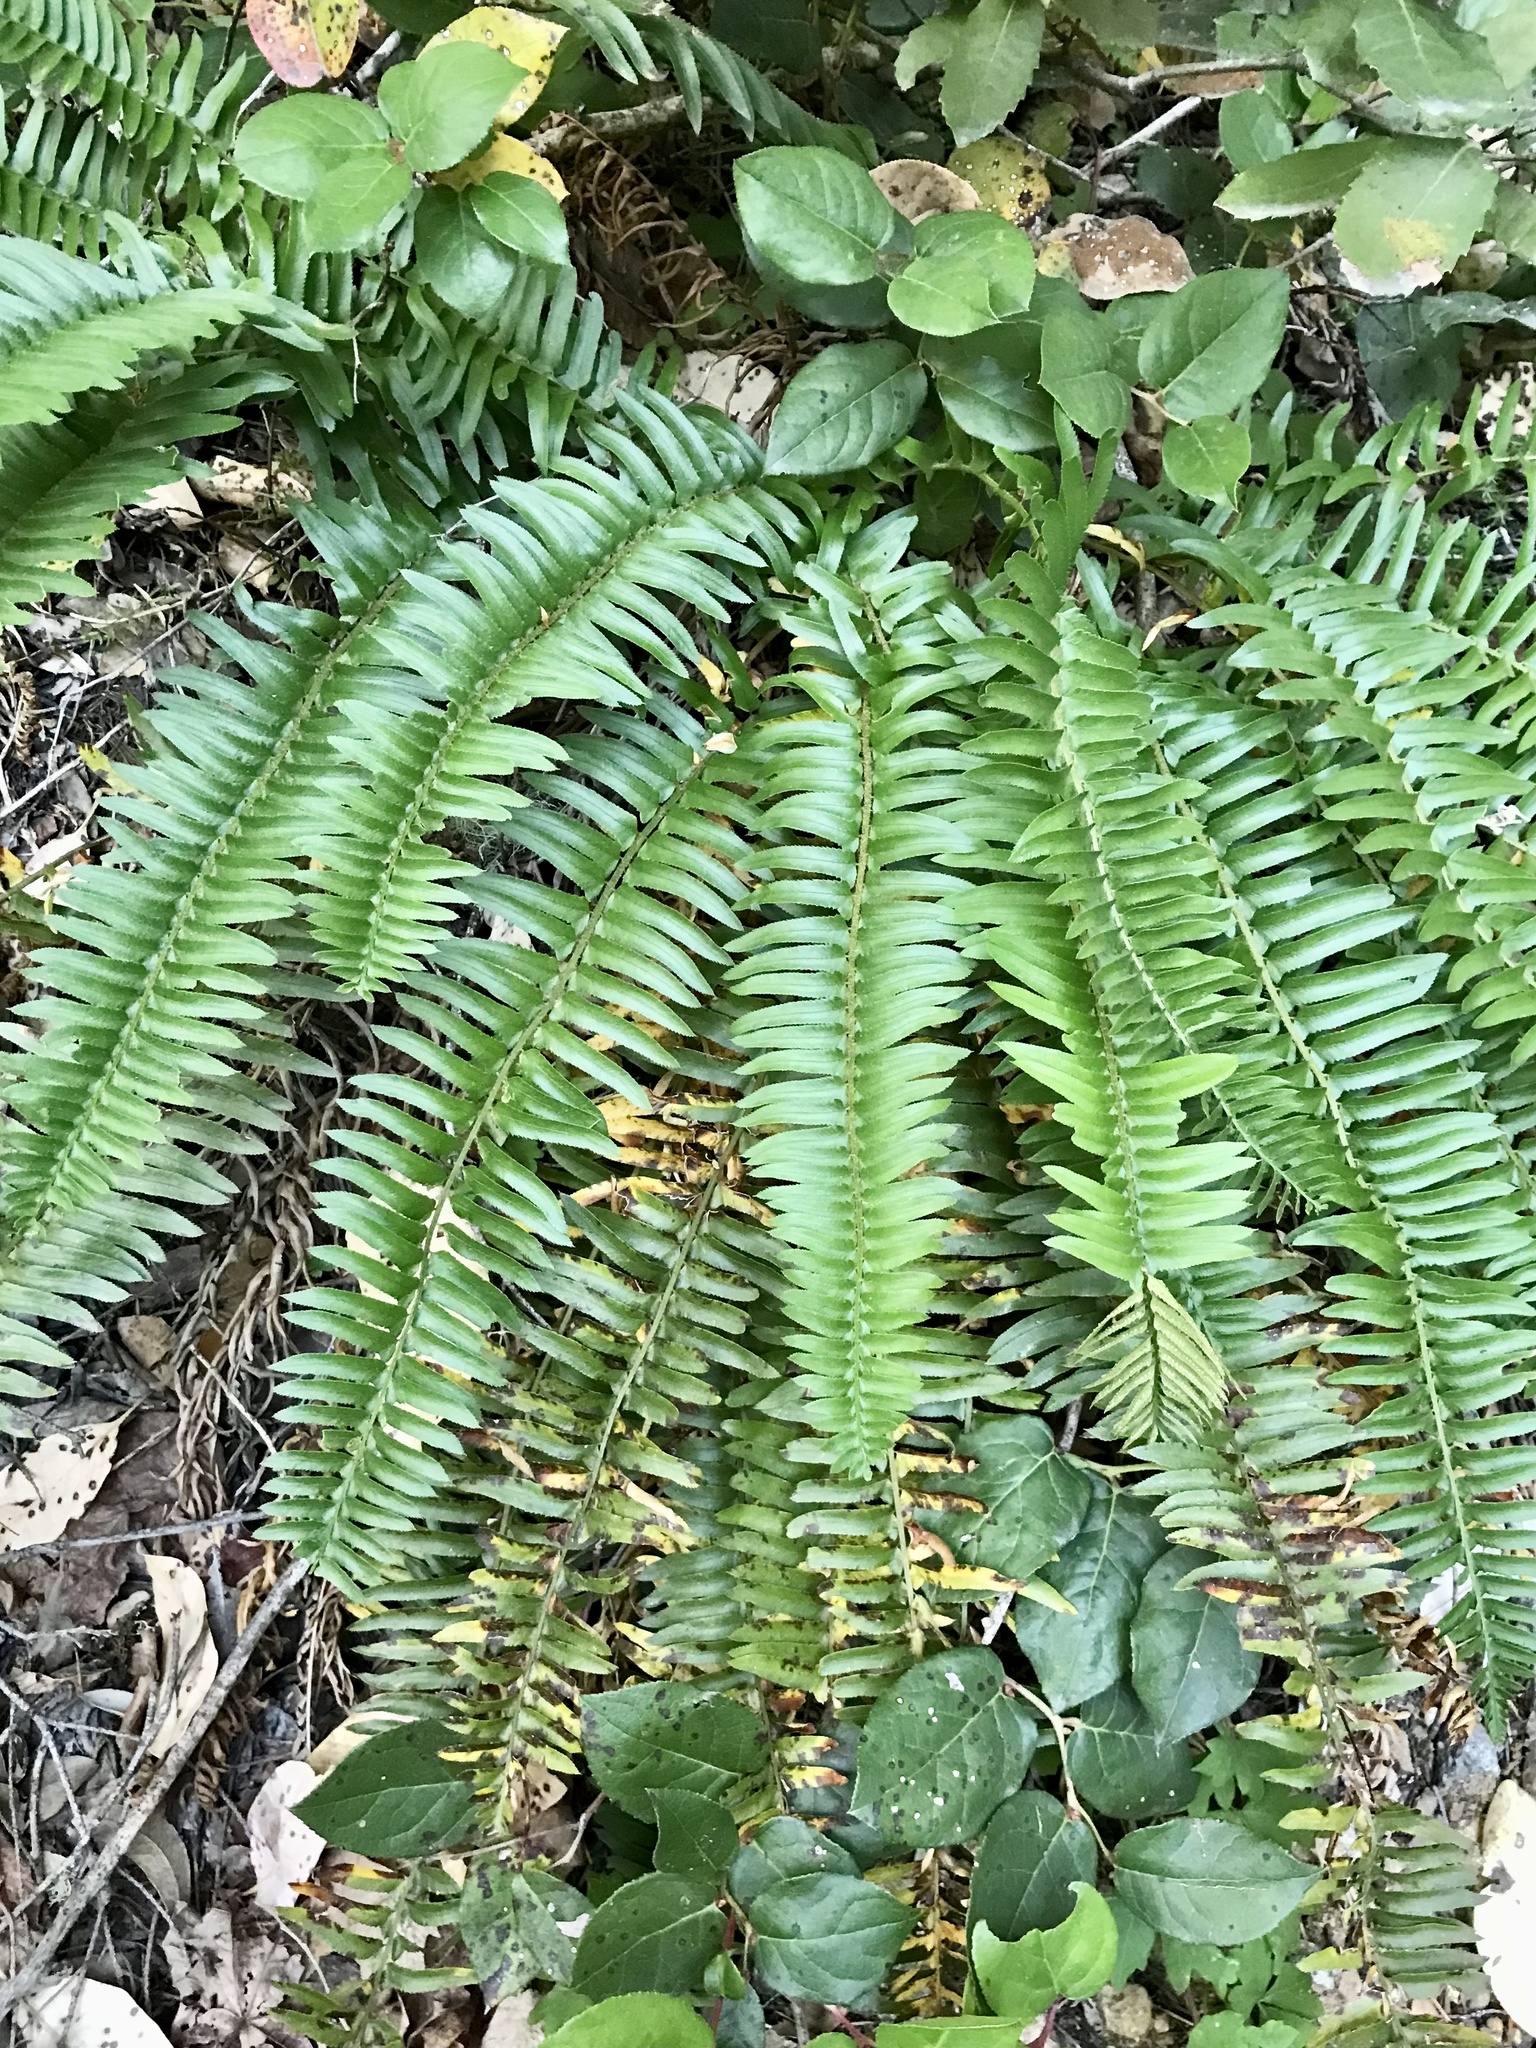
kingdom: Plantae
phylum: Tracheophyta
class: Polypodiopsida
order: Polypodiales
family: Dryopteridaceae
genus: Polystichum
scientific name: Polystichum munitum
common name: Western sword-fern
